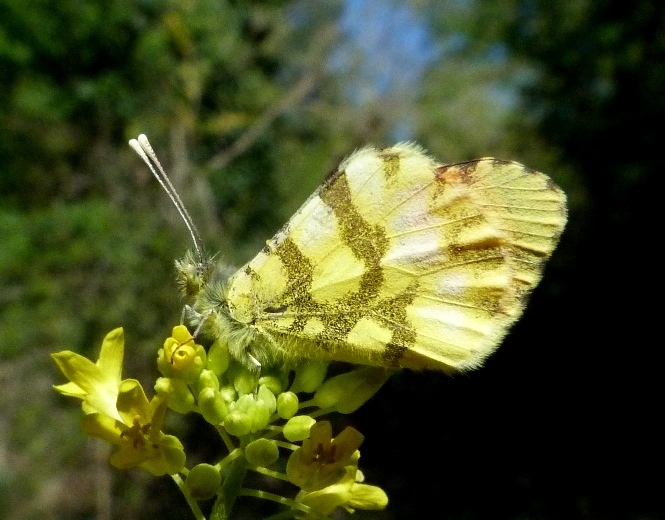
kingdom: Animalia
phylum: Arthropoda
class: Insecta
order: Lepidoptera
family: Pieridae
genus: Anthocharis
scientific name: Anthocharis euphenoides
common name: Provence orange-tip
